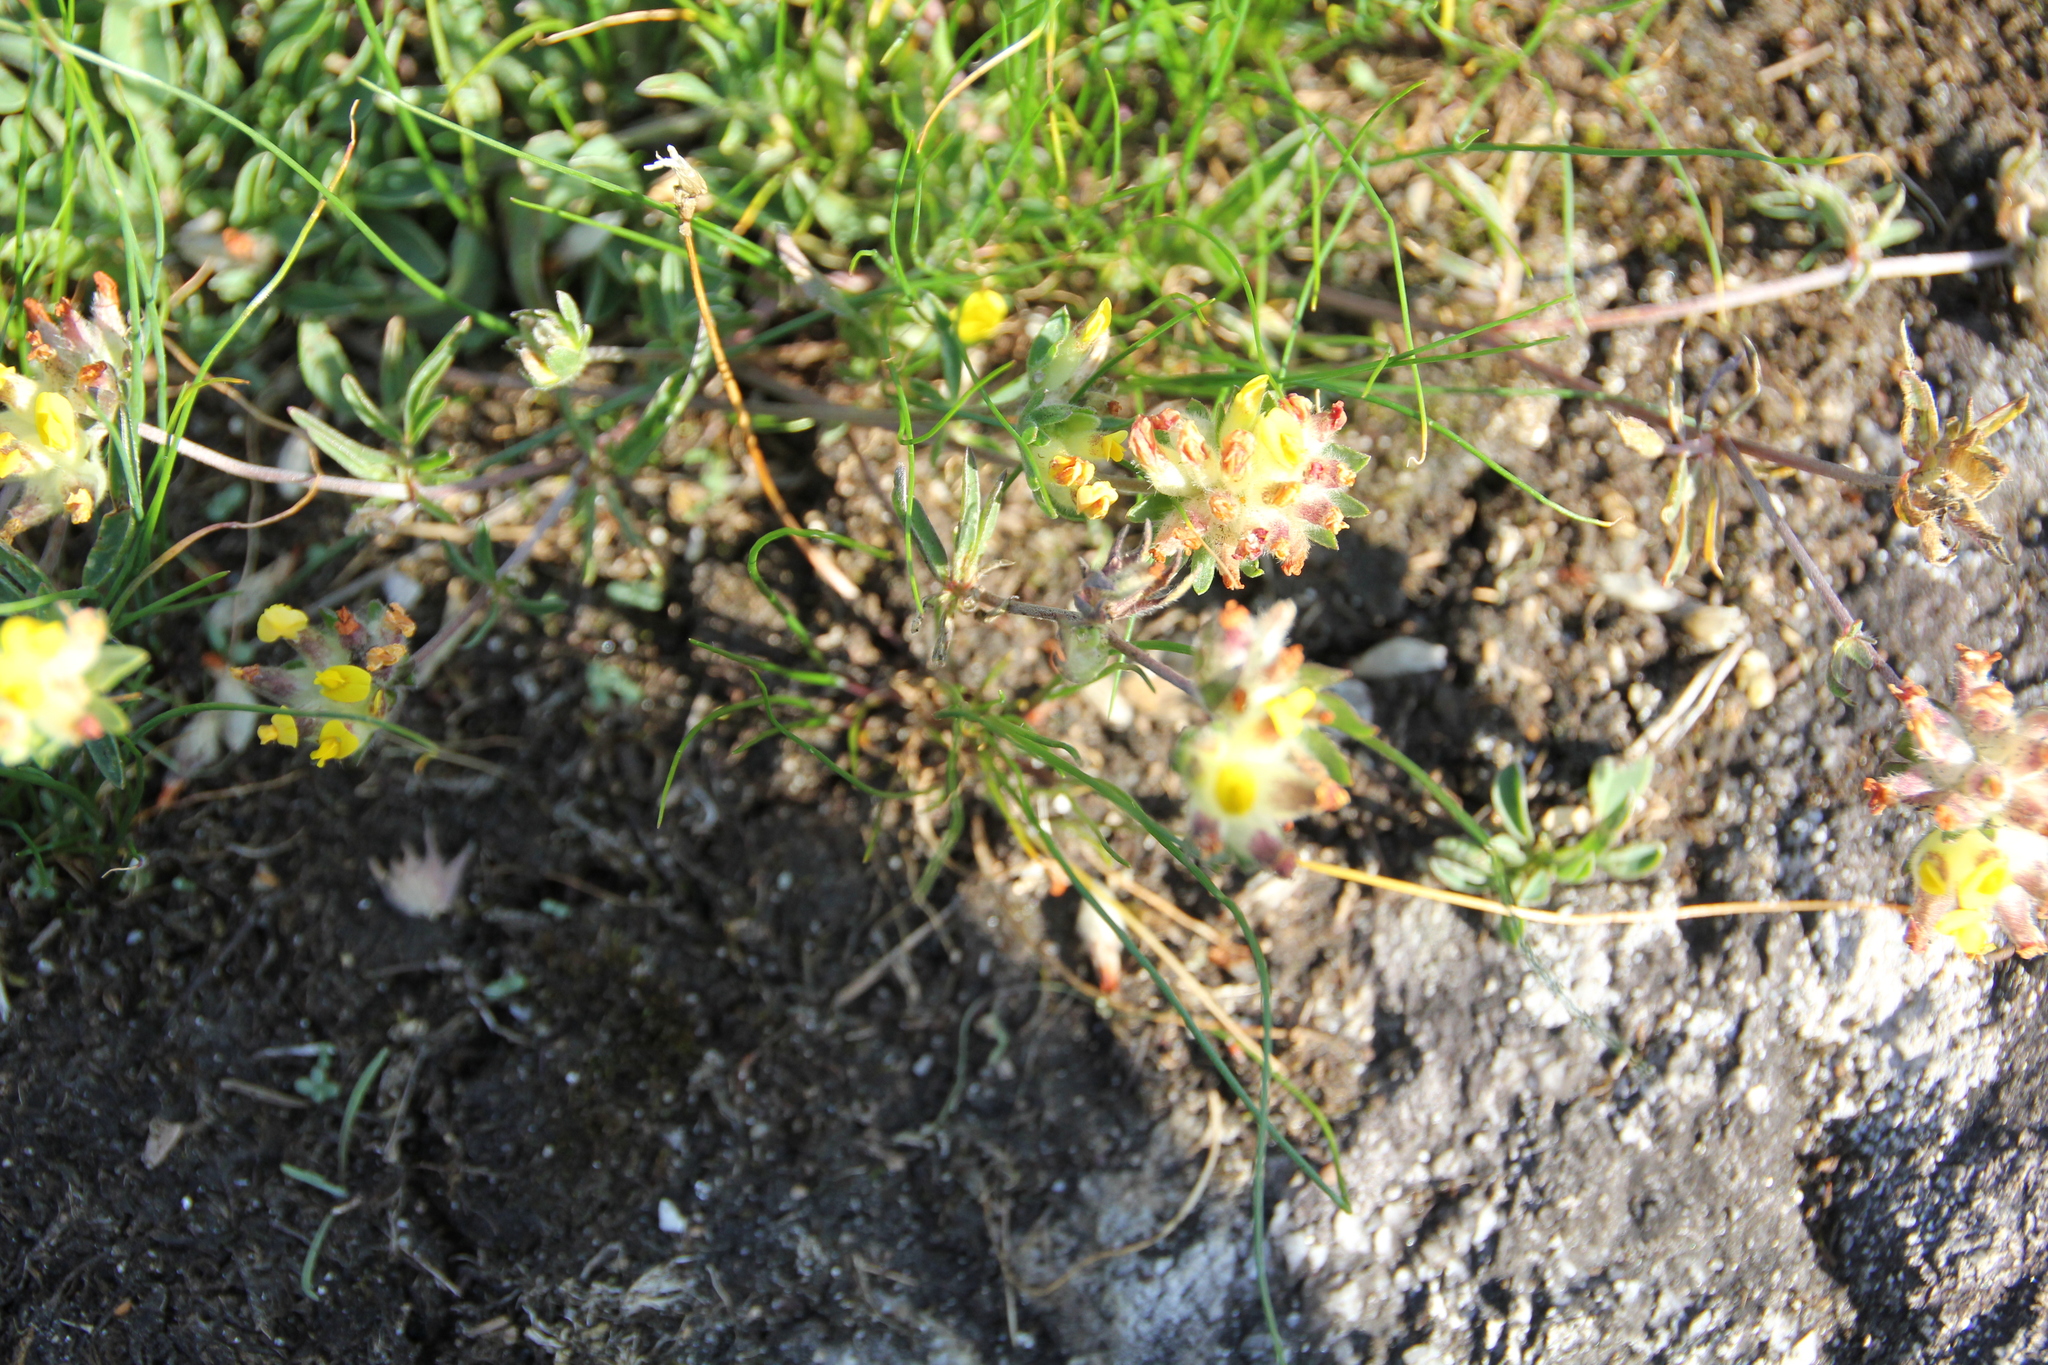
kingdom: Plantae
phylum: Tracheophyta
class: Magnoliopsida
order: Fabales
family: Fabaceae
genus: Anthyllis
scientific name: Anthyllis vulneraria
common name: Kidney vetch
